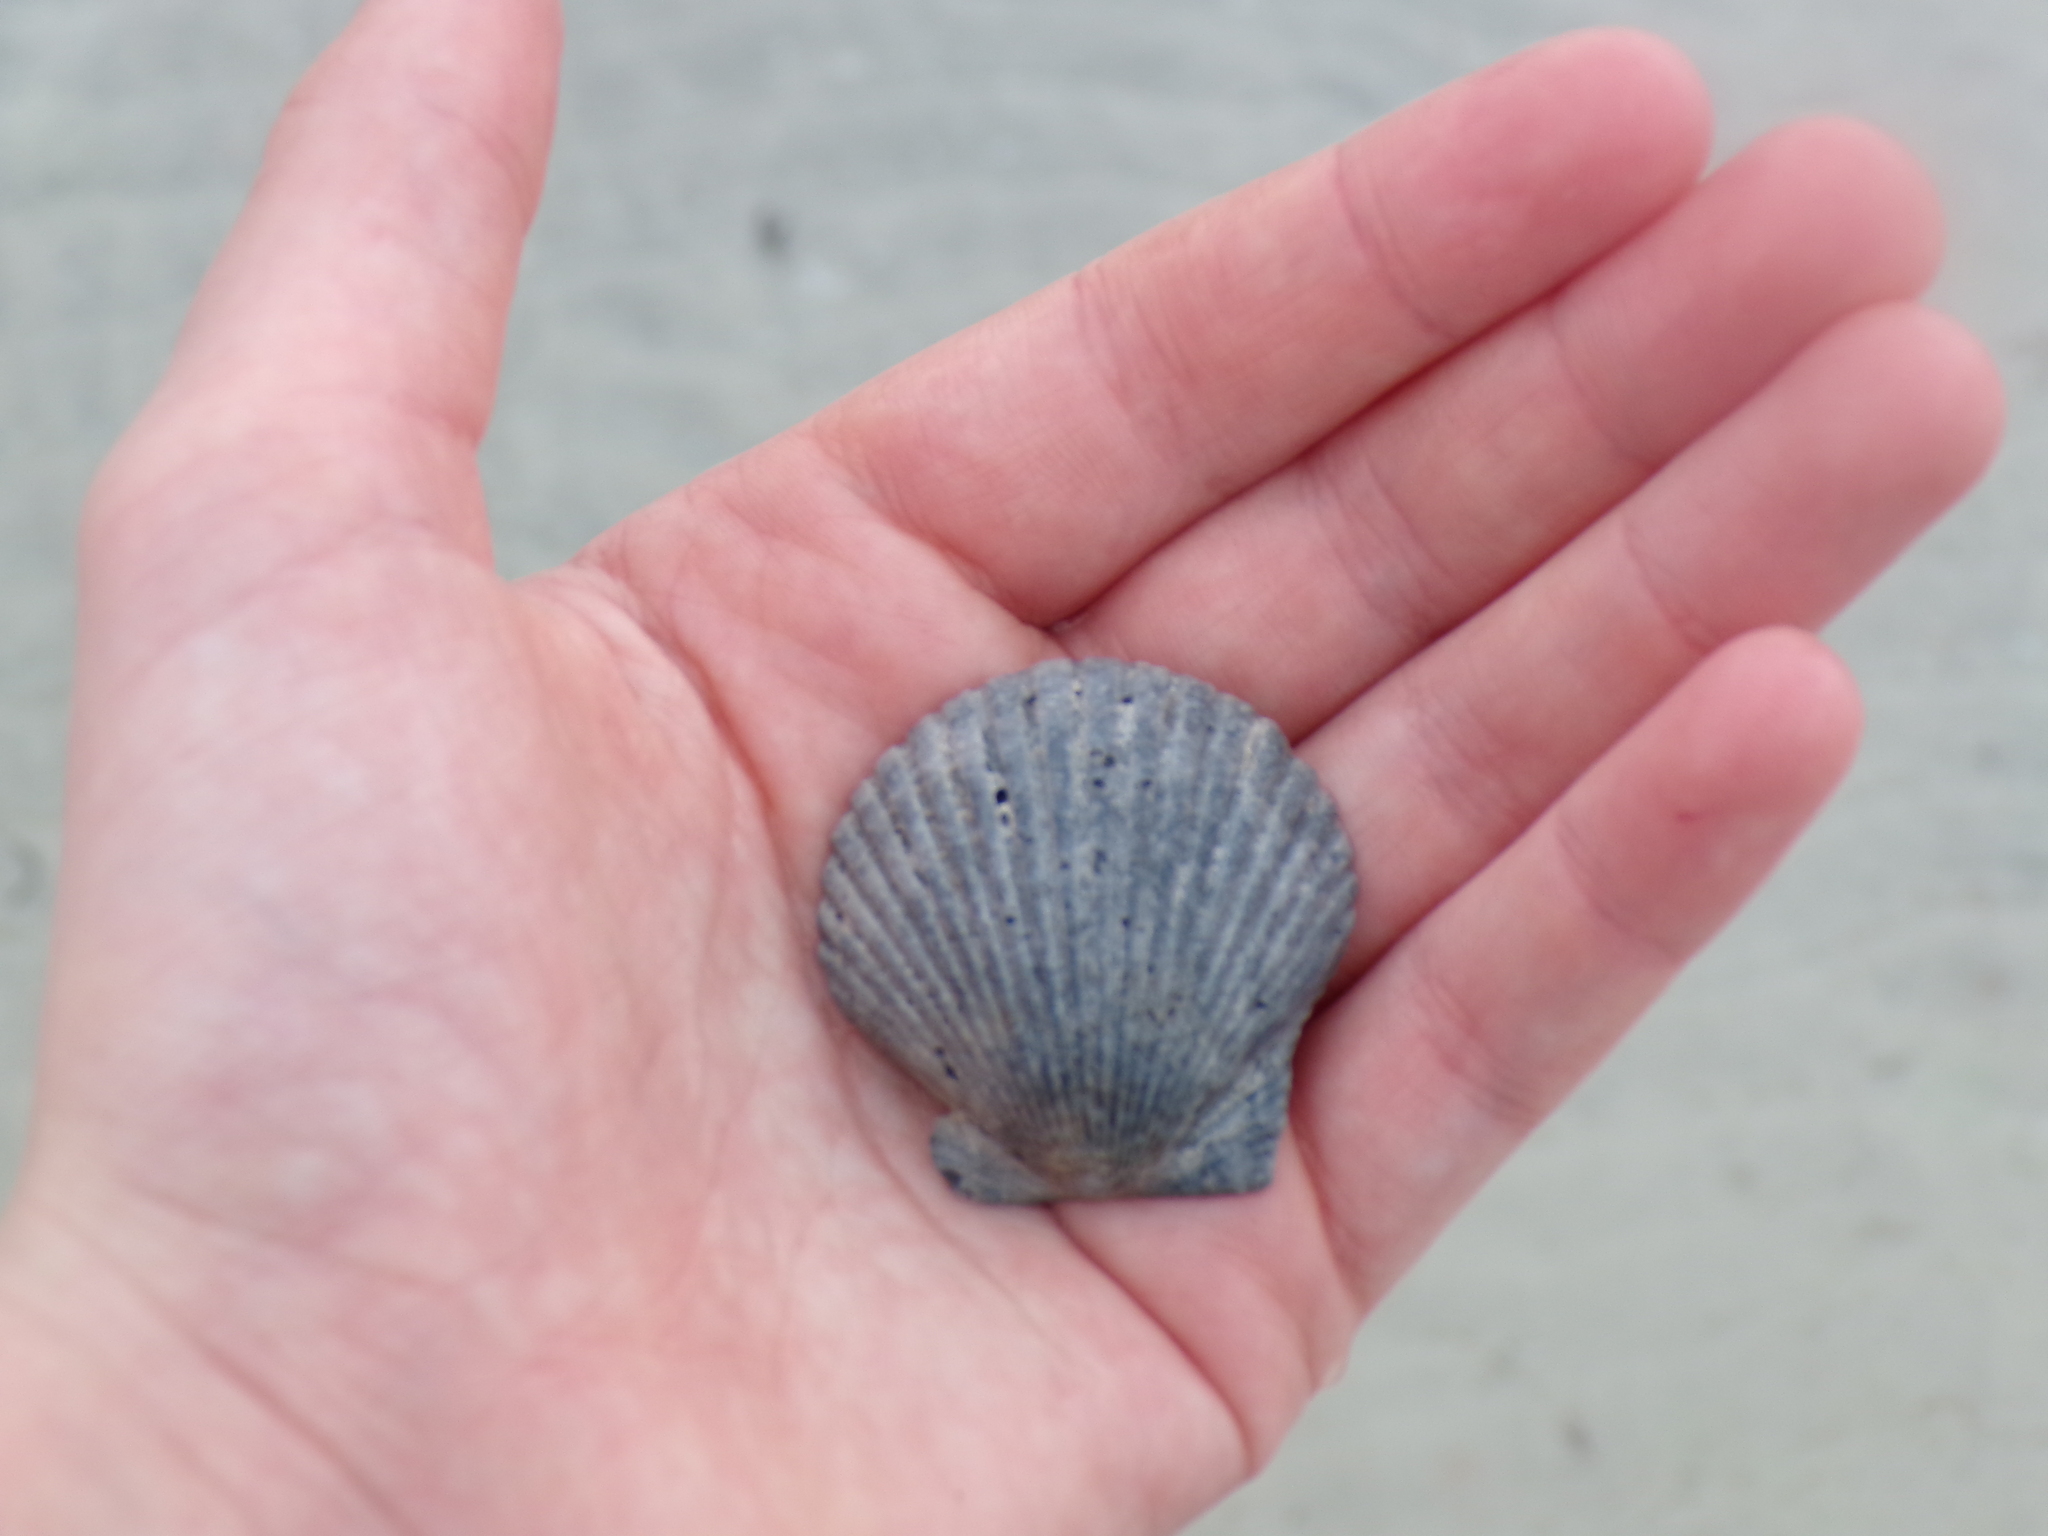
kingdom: Animalia
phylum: Mollusca
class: Bivalvia
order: Pectinida
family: Pectinidae
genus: Argopecten
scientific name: Argopecten irradians
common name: Atlantic bay scallop
